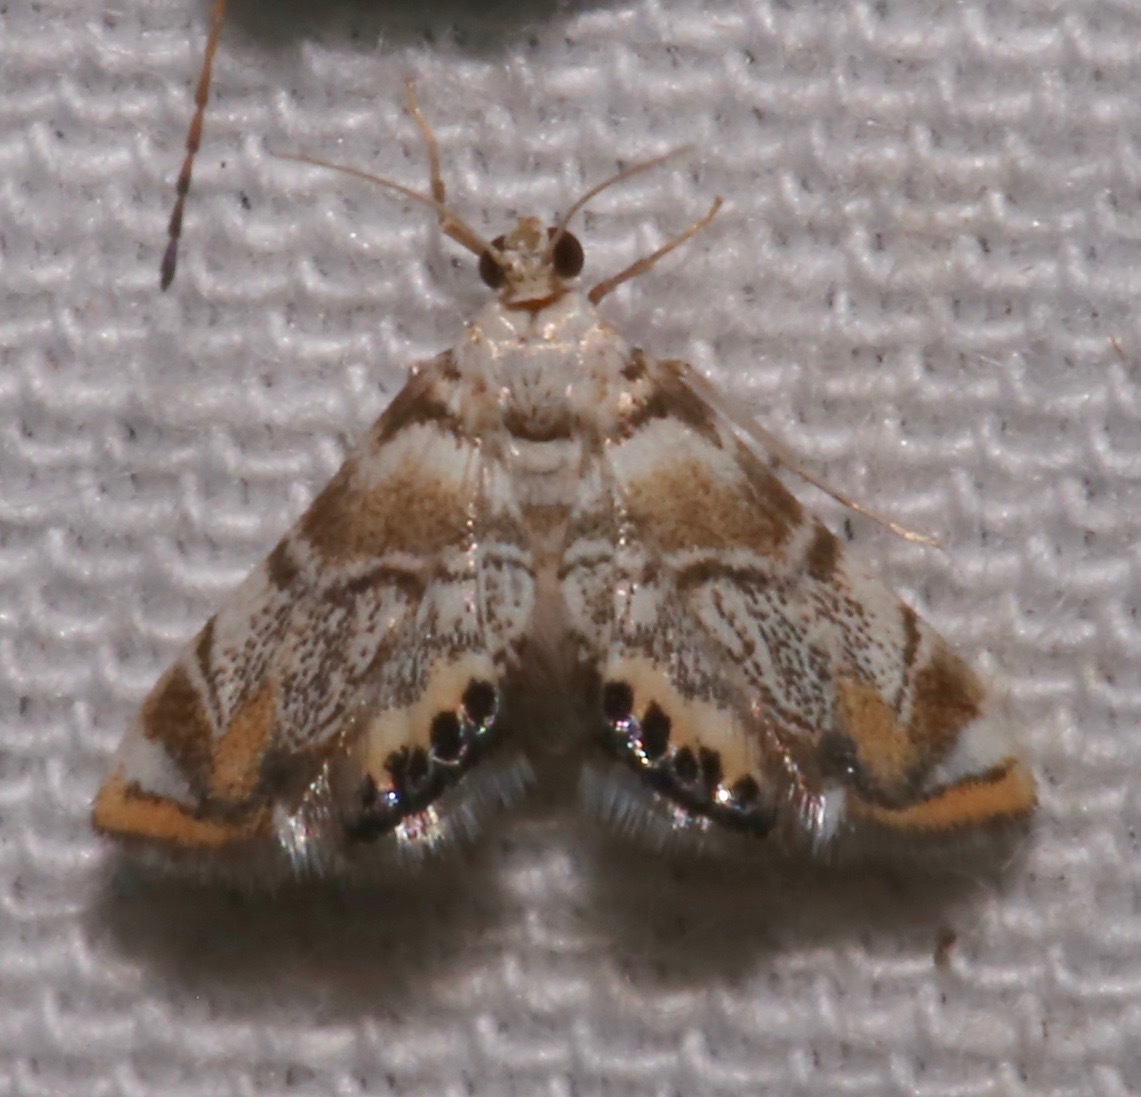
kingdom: Animalia
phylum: Arthropoda
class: Insecta
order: Lepidoptera
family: Crambidae
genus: Eoparargyractis
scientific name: Eoparargyractis irroratalis
